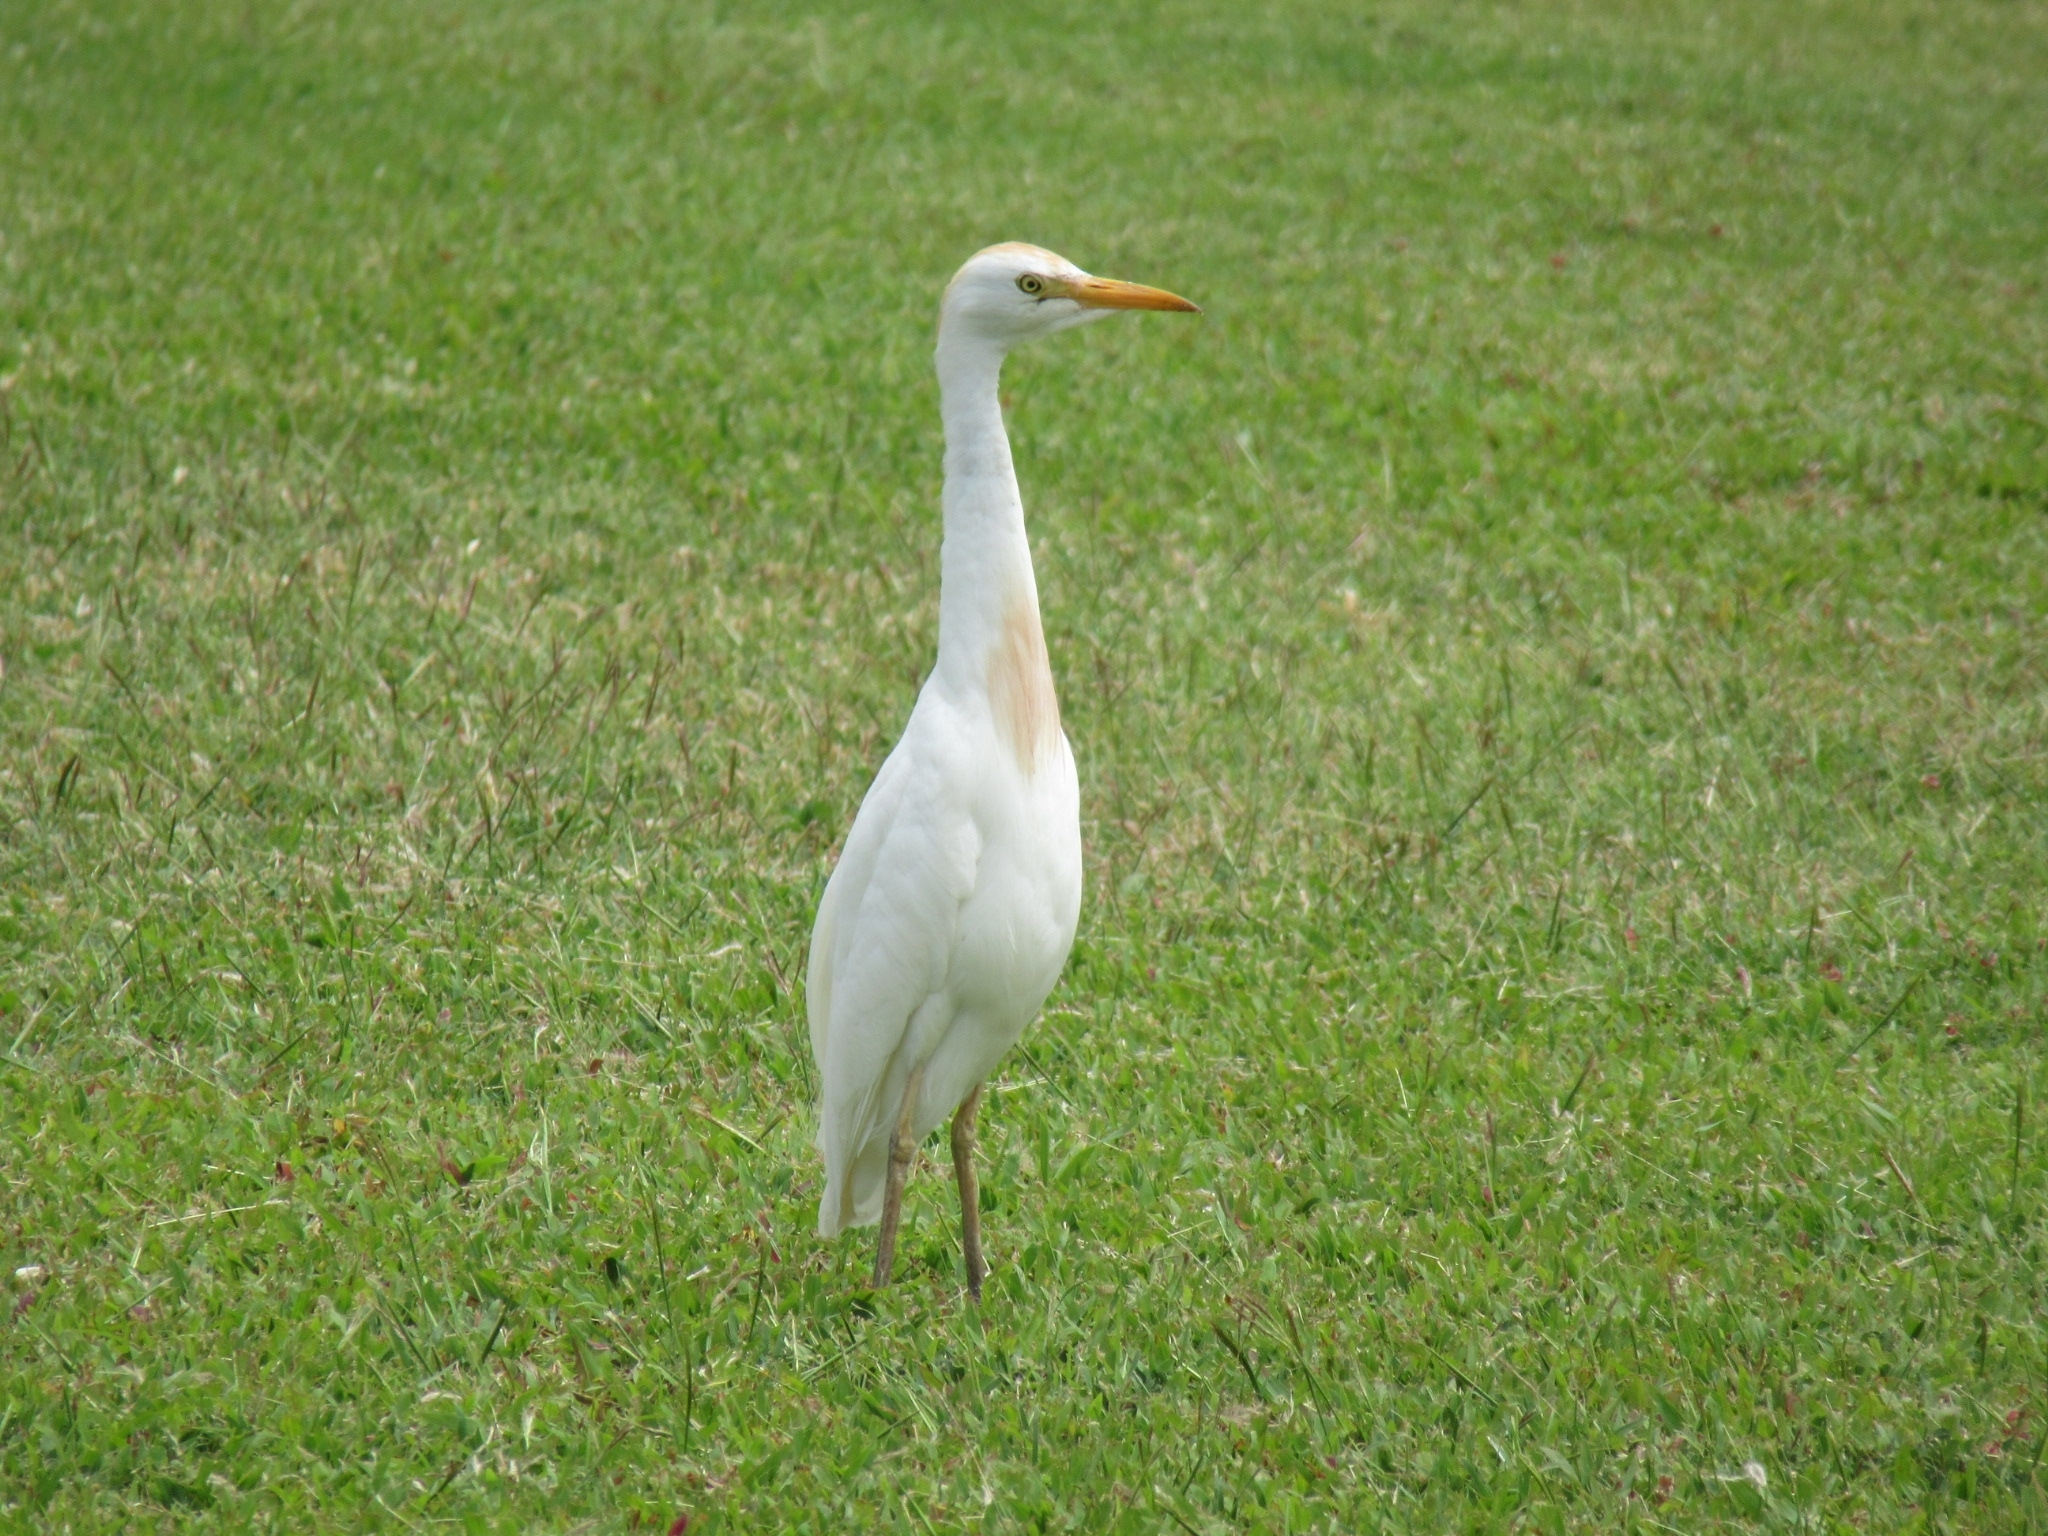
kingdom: Animalia
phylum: Chordata
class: Aves
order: Pelecaniformes
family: Ardeidae
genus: Bubulcus
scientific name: Bubulcus ibis
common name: Cattle egret
